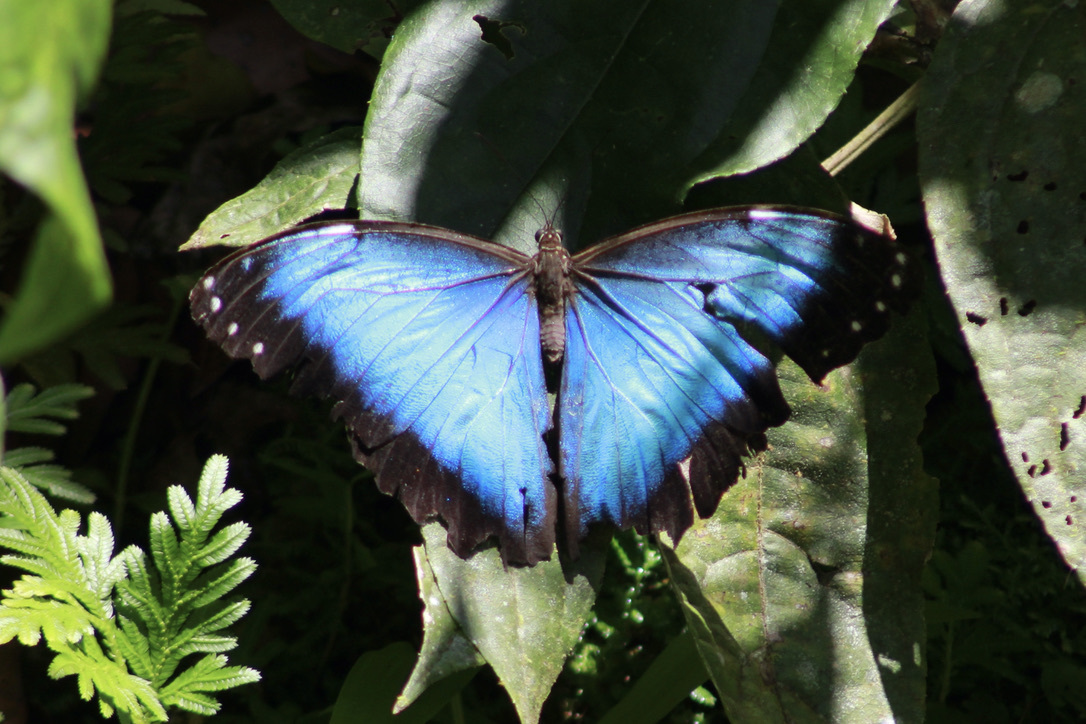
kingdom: Animalia
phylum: Arthropoda
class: Insecta
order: Lepidoptera
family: Nymphalidae
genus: Morpho
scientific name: Morpho helenor
